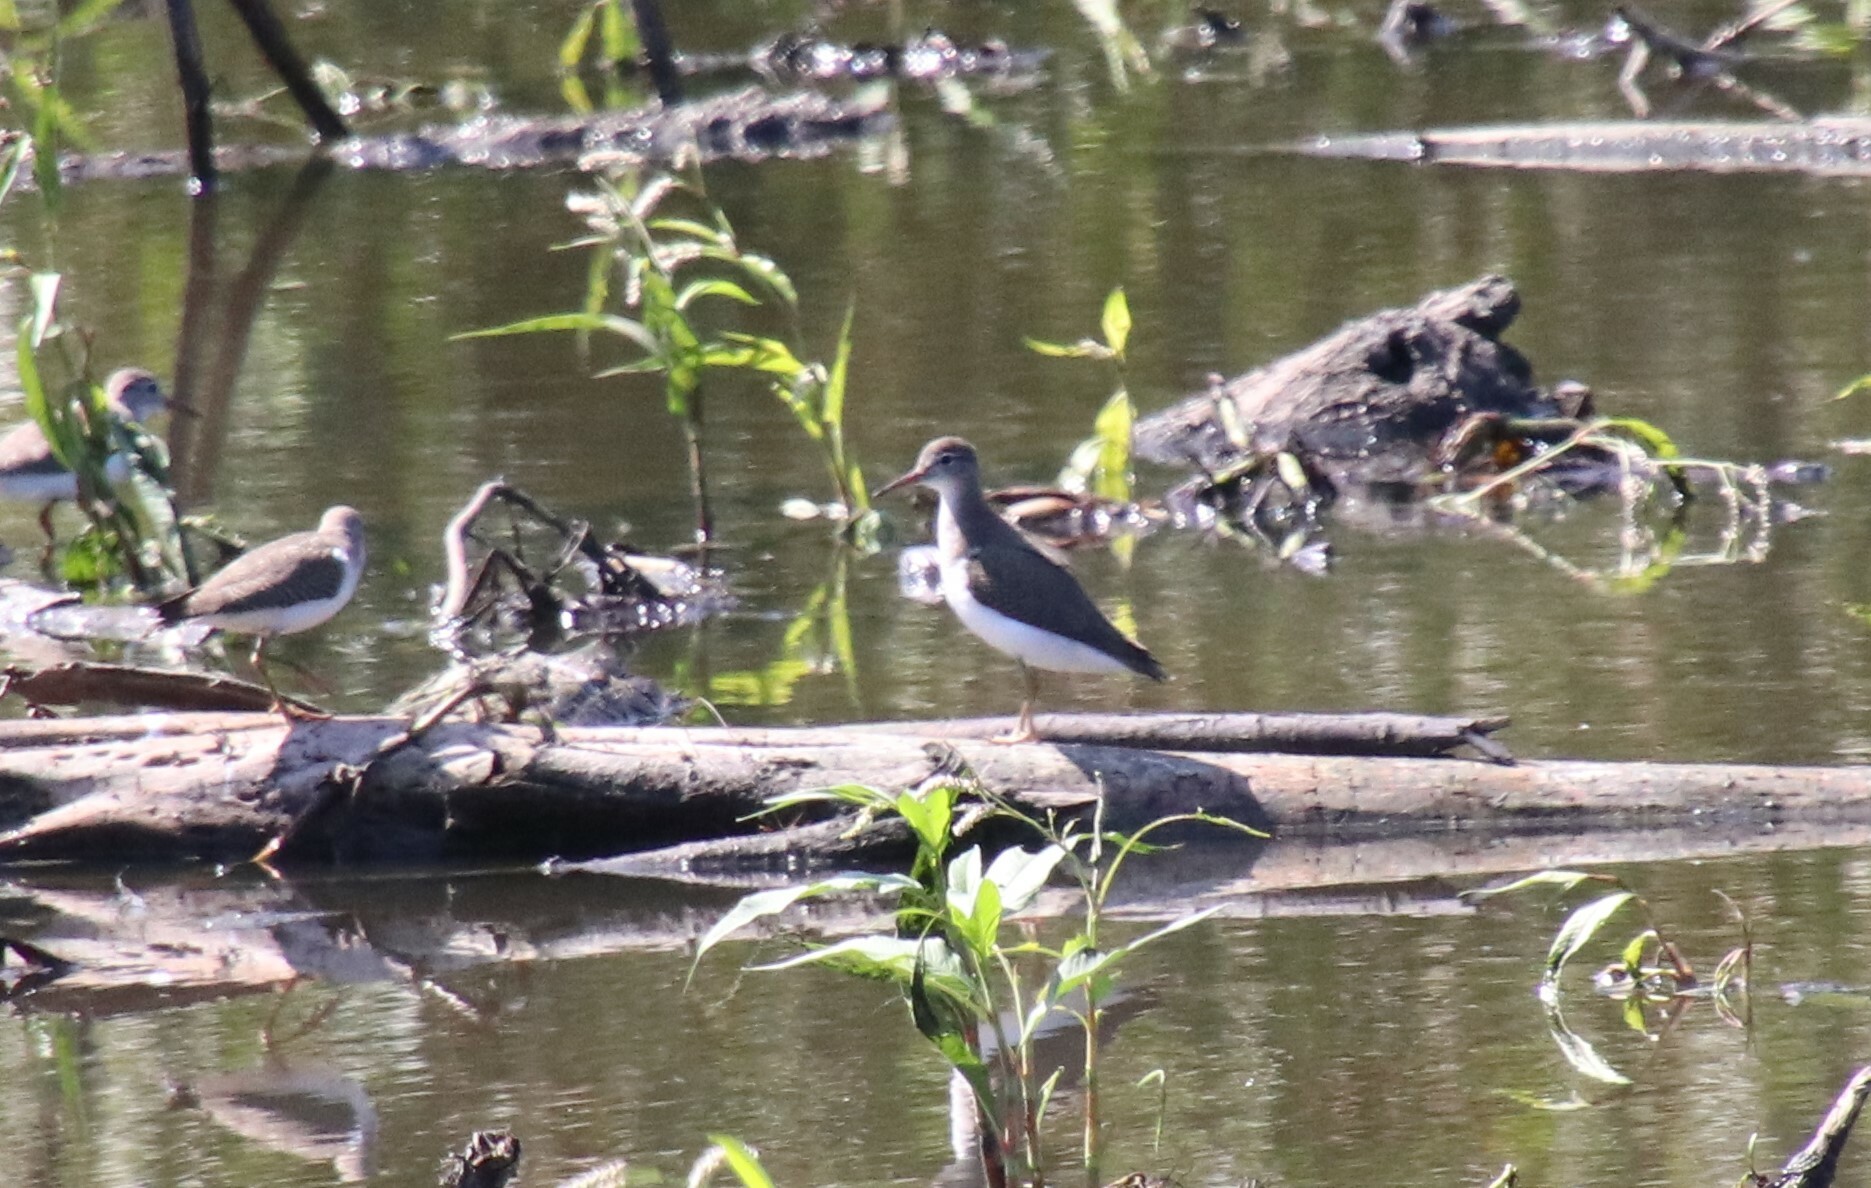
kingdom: Animalia
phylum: Chordata
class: Aves
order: Charadriiformes
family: Scolopacidae
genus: Actitis
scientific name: Actitis macularius
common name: Spotted sandpiper
